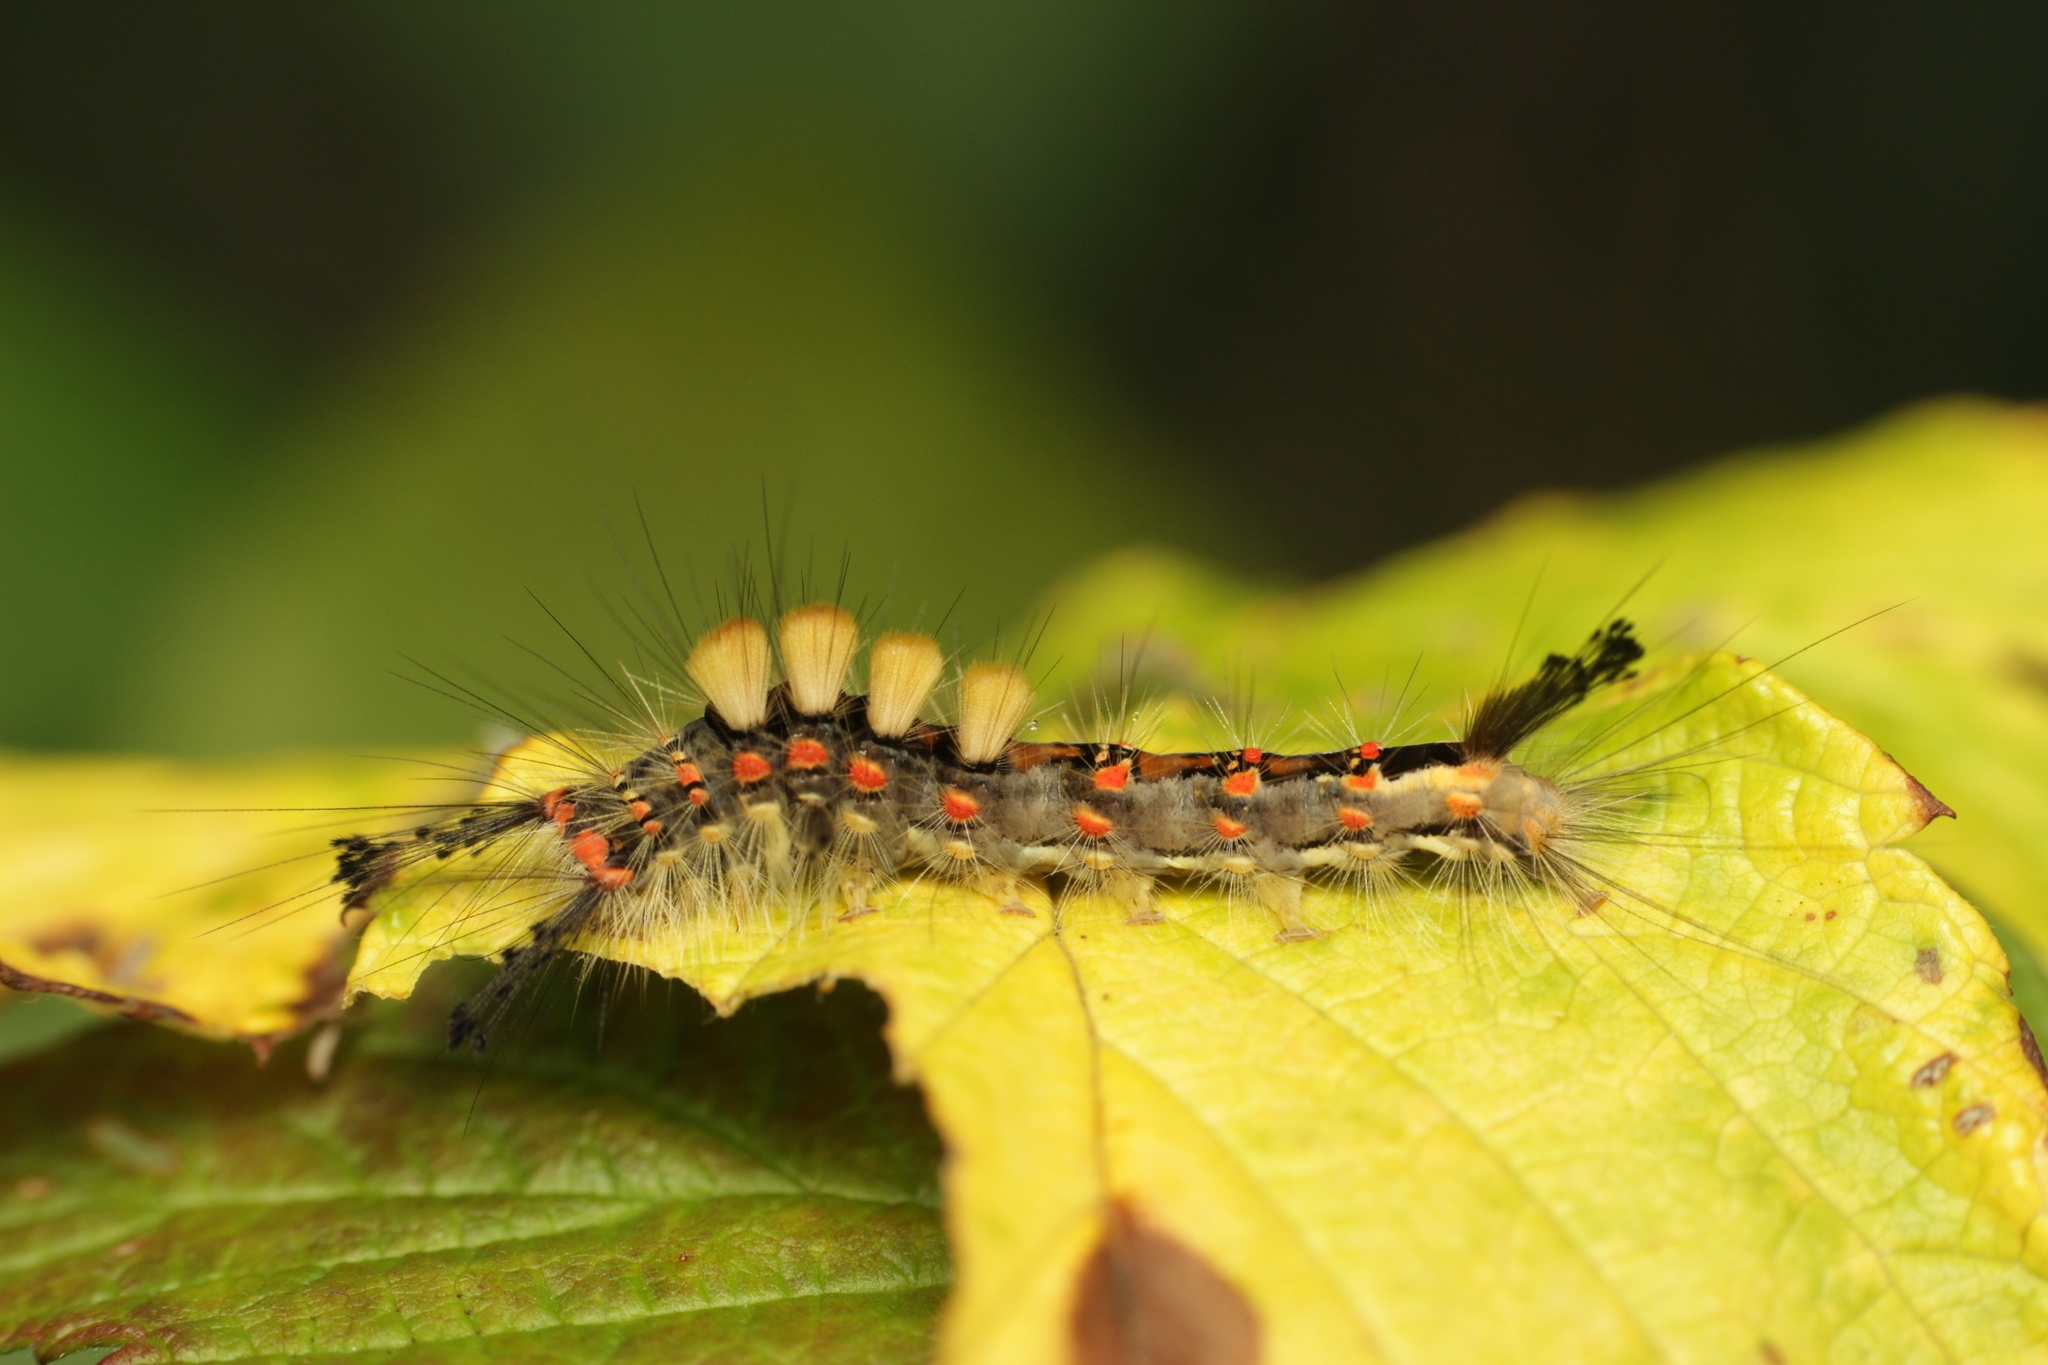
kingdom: Animalia
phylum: Arthropoda
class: Insecta
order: Lepidoptera
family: Erebidae
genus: Orgyia
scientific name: Orgyia antiqua
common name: Vapourer
